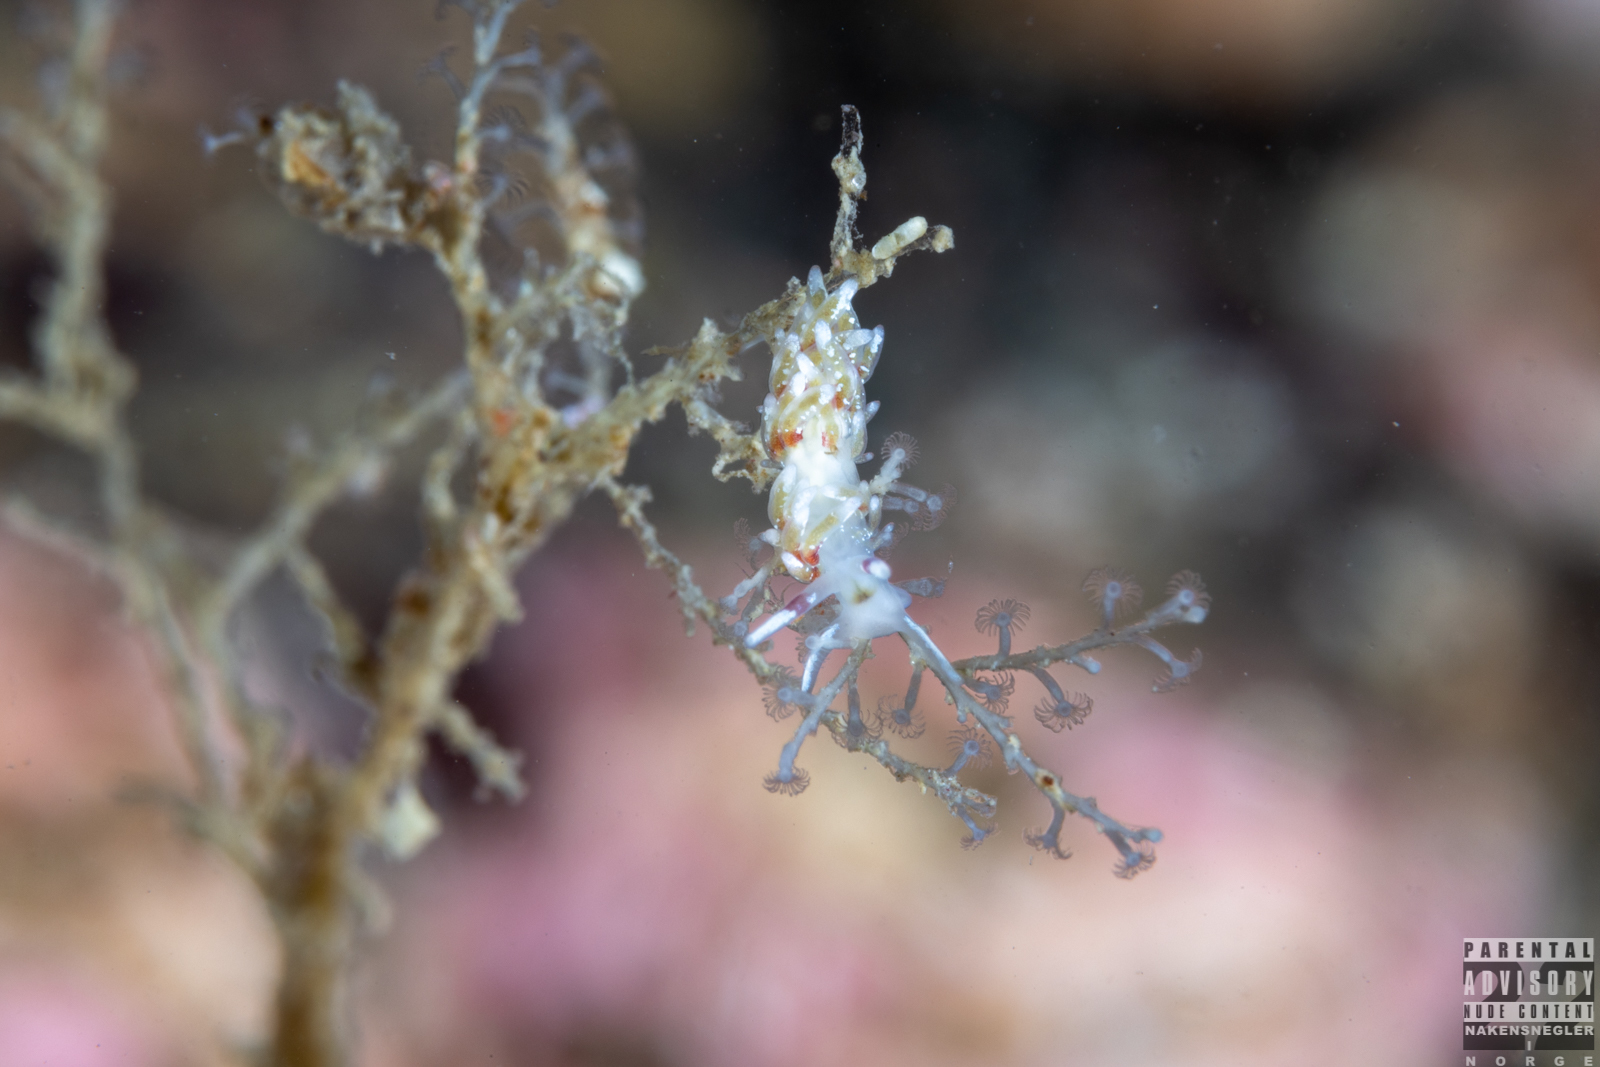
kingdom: Animalia
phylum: Mollusca
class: Gastropoda
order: Nudibranchia
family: Trinchesiidae
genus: Rubramoena
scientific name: Rubramoena rubescens
